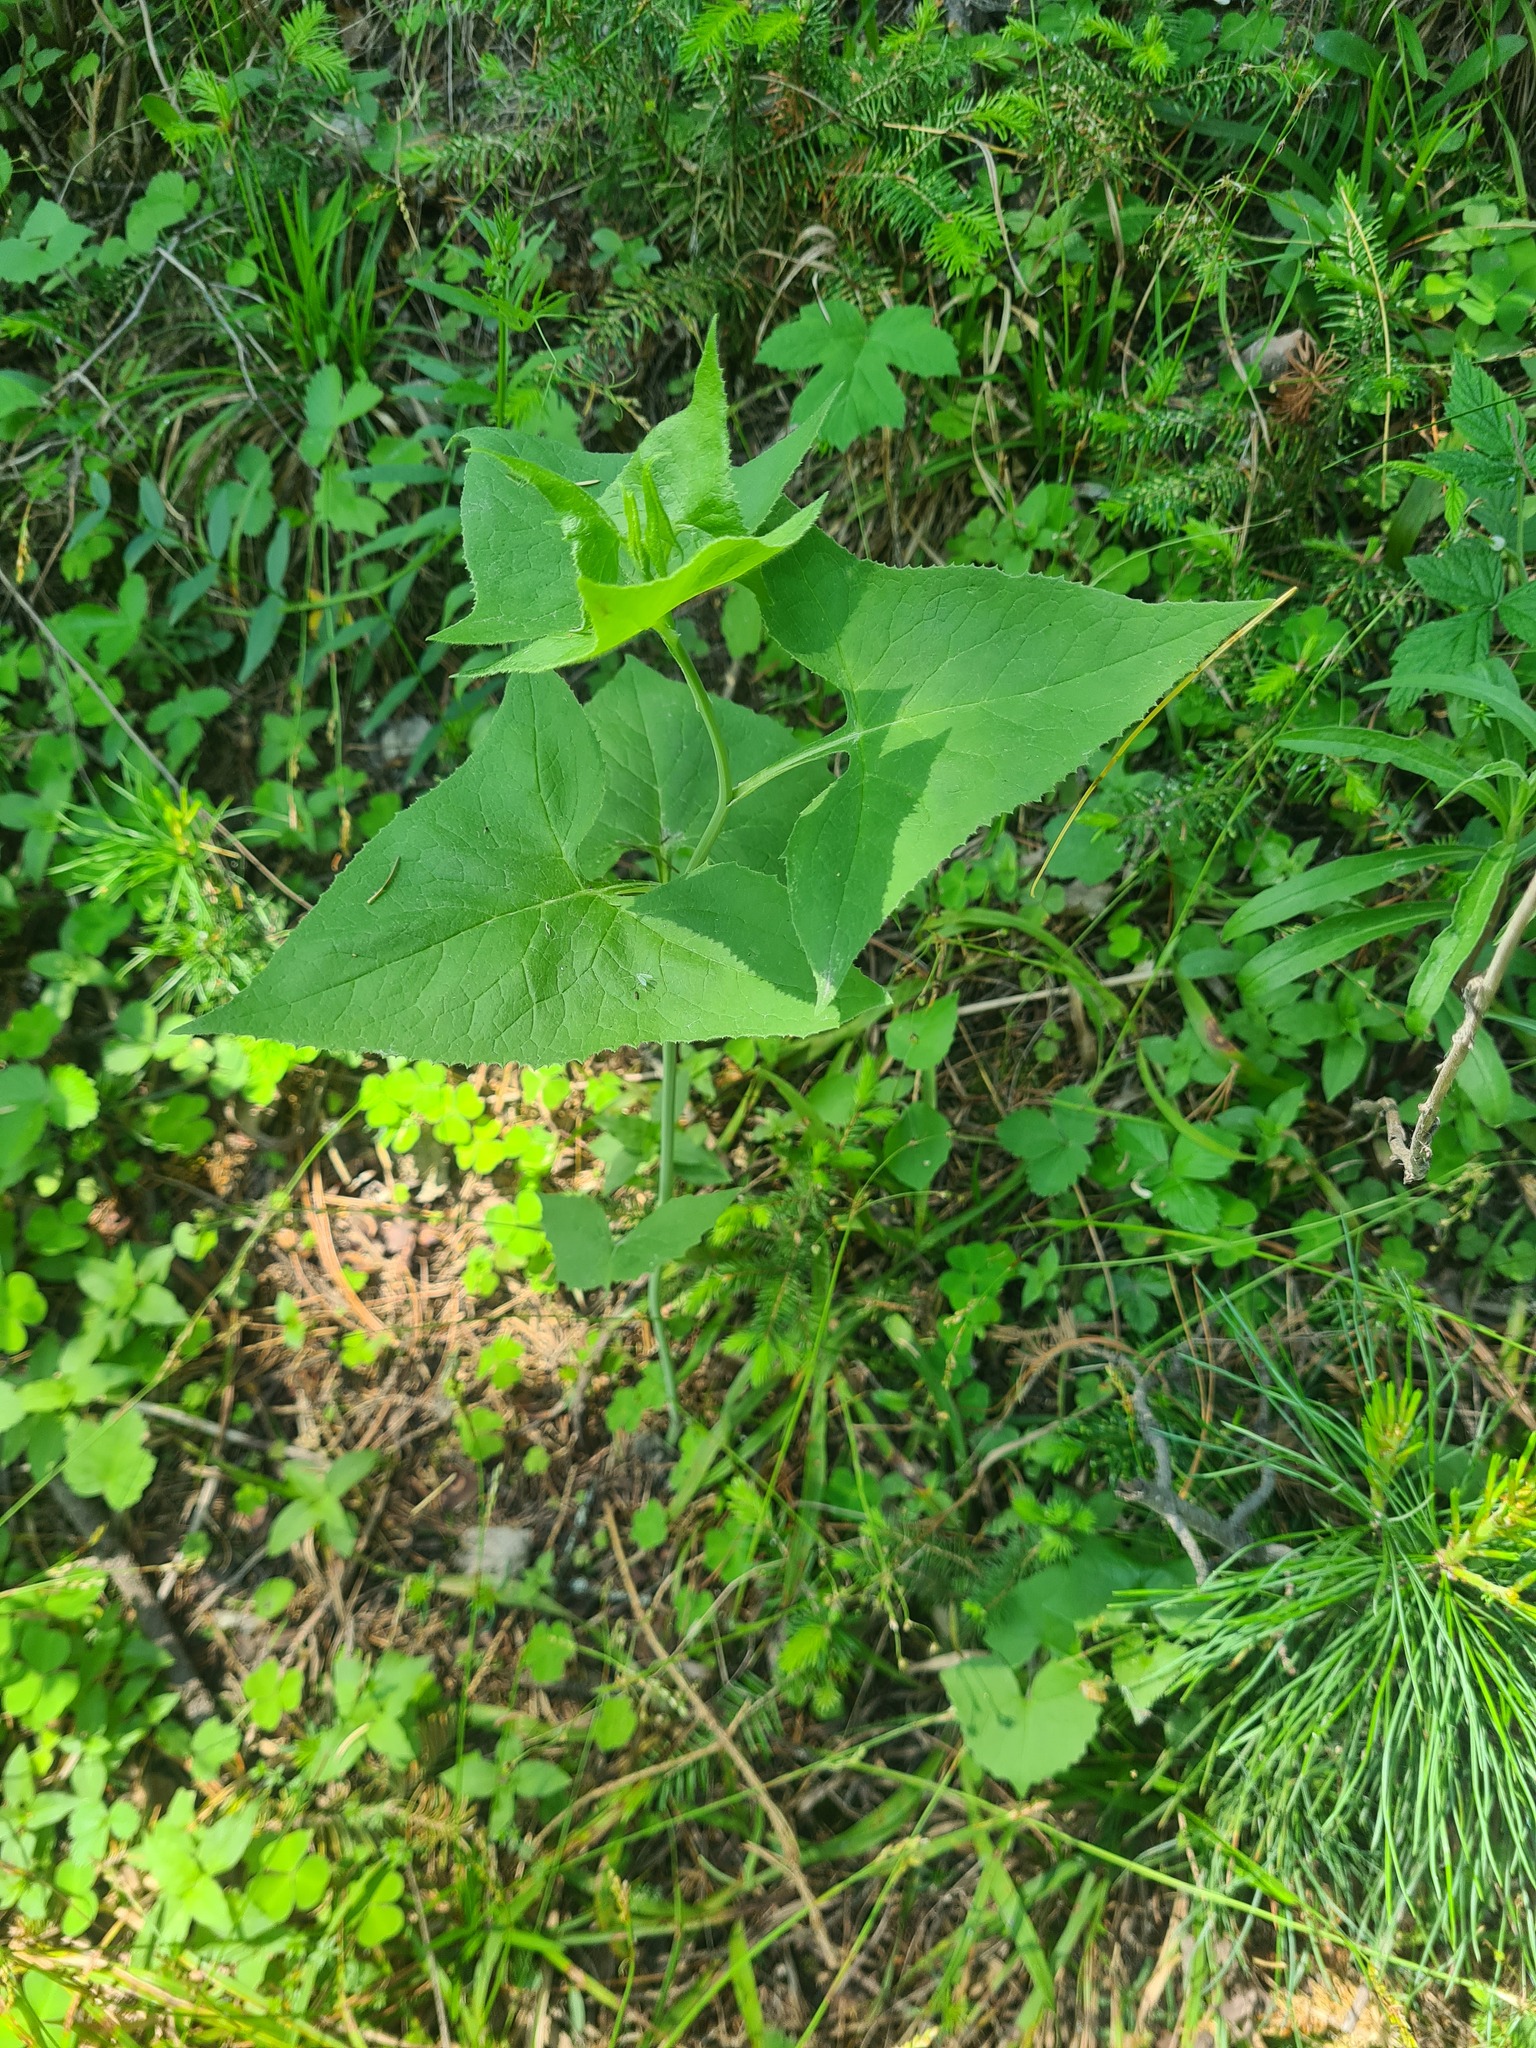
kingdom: Plantae
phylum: Tracheophyta
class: Magnoliopsida
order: Asterales
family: Asteraceae
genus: Parasenecio
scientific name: Parasenecio hastatus
